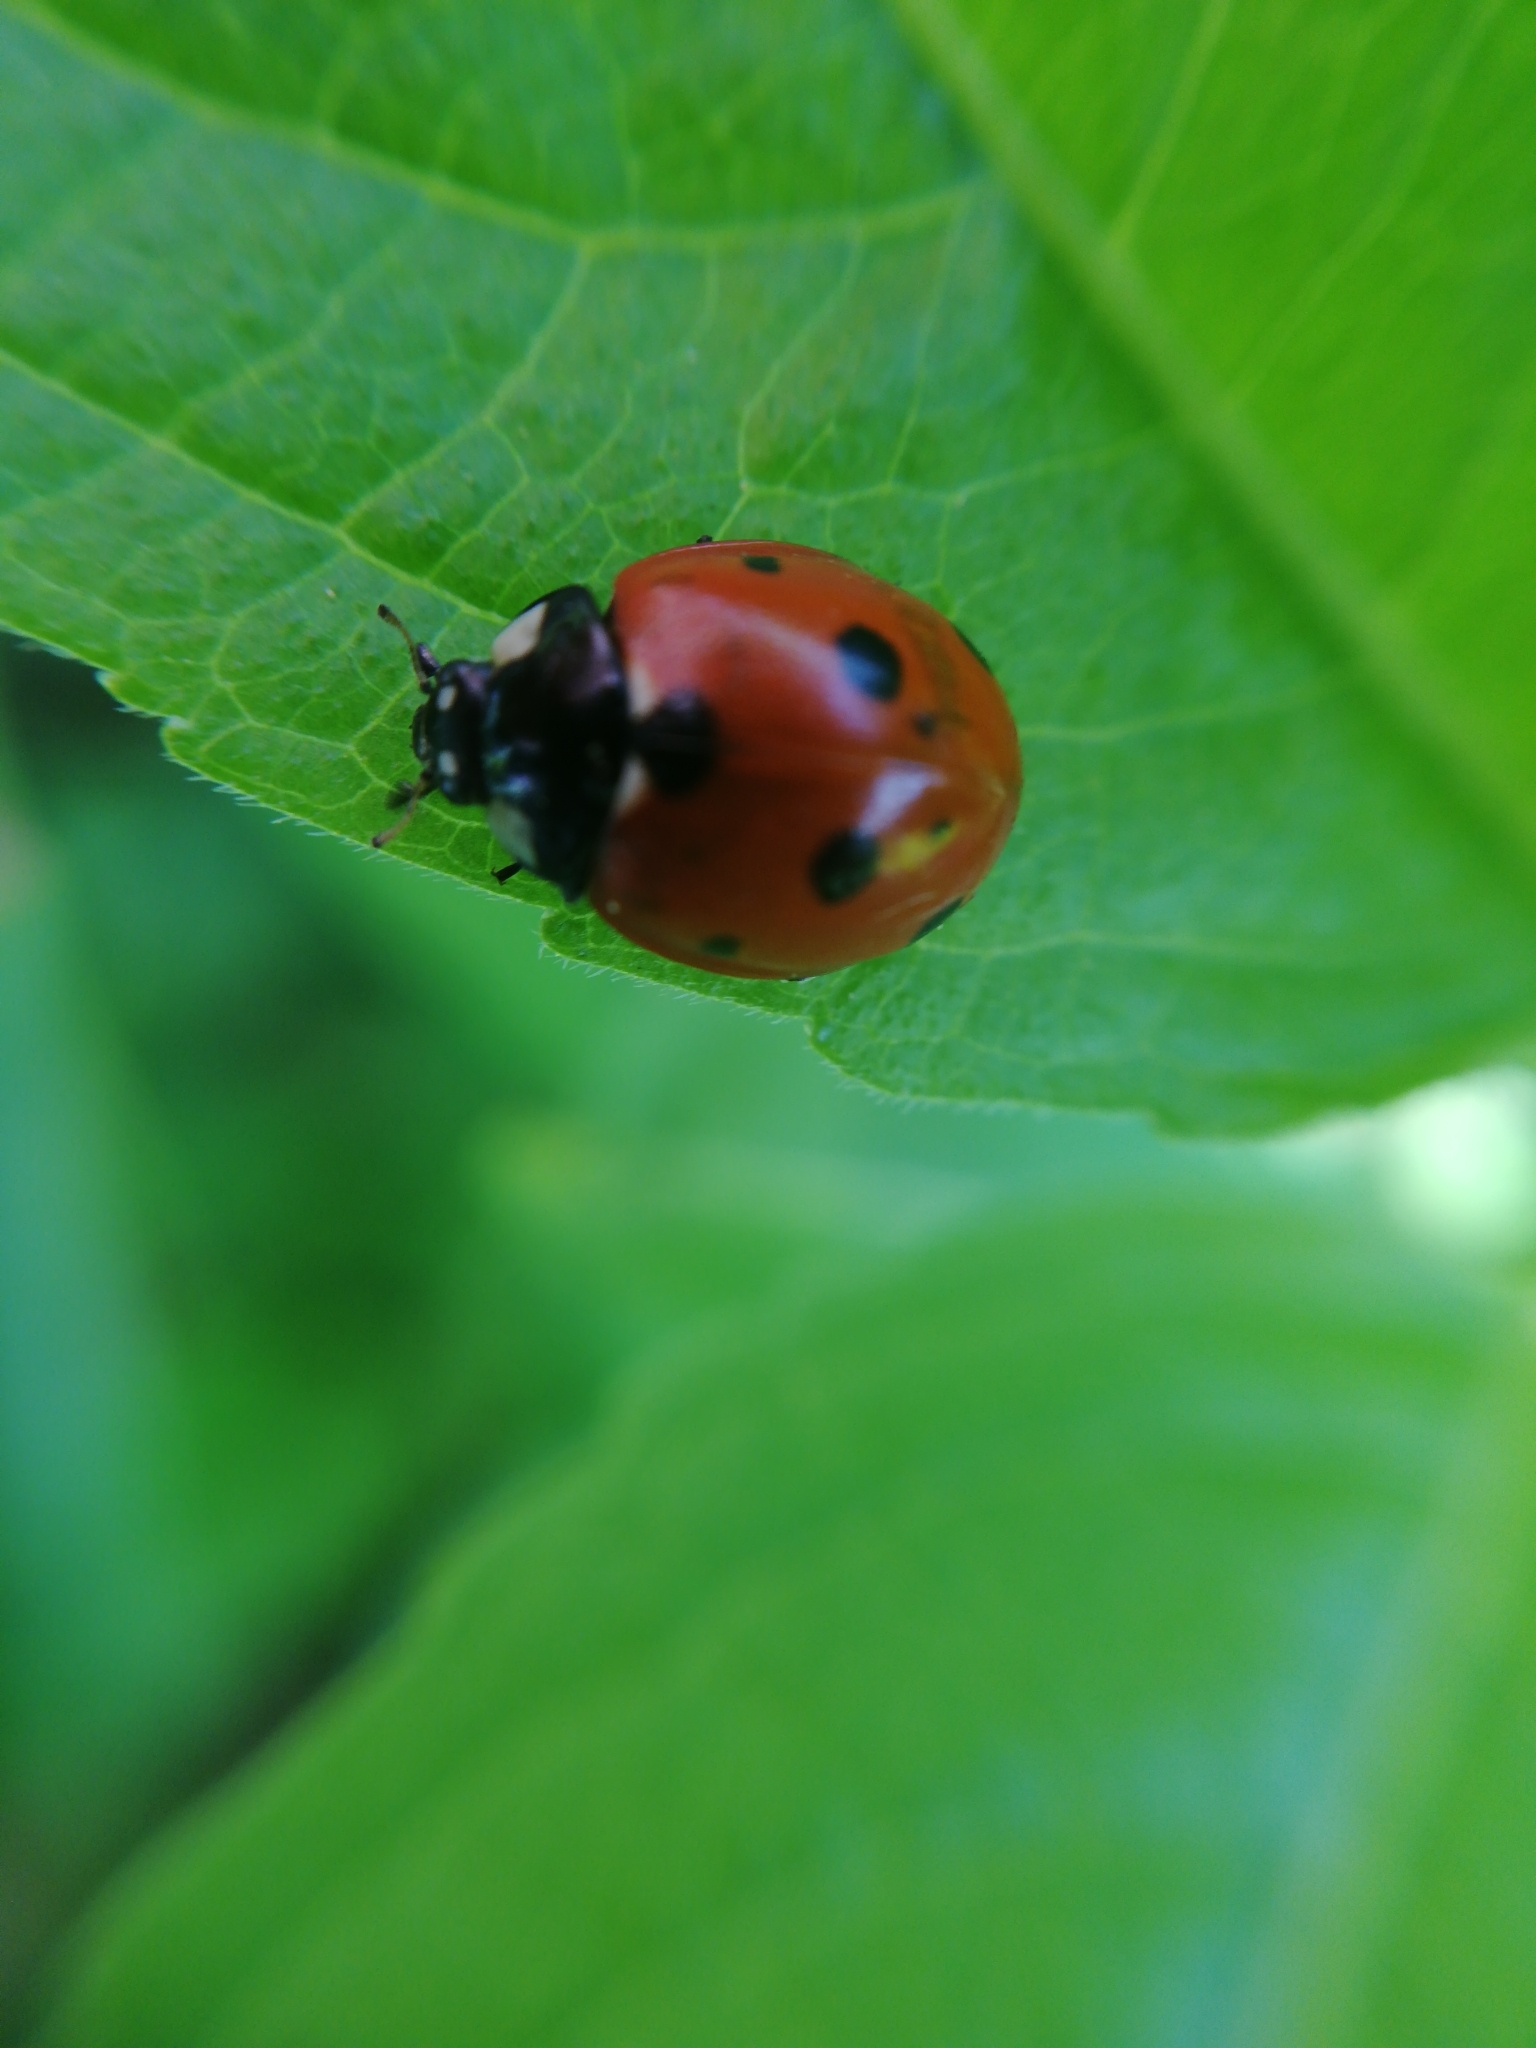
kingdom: Animalia
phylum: Arthropoda
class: Insecta
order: Coleoptera
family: Coccinellidae
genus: Coccinella
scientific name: Coccinella septempunctata
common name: Sevenspotted lady beetle
